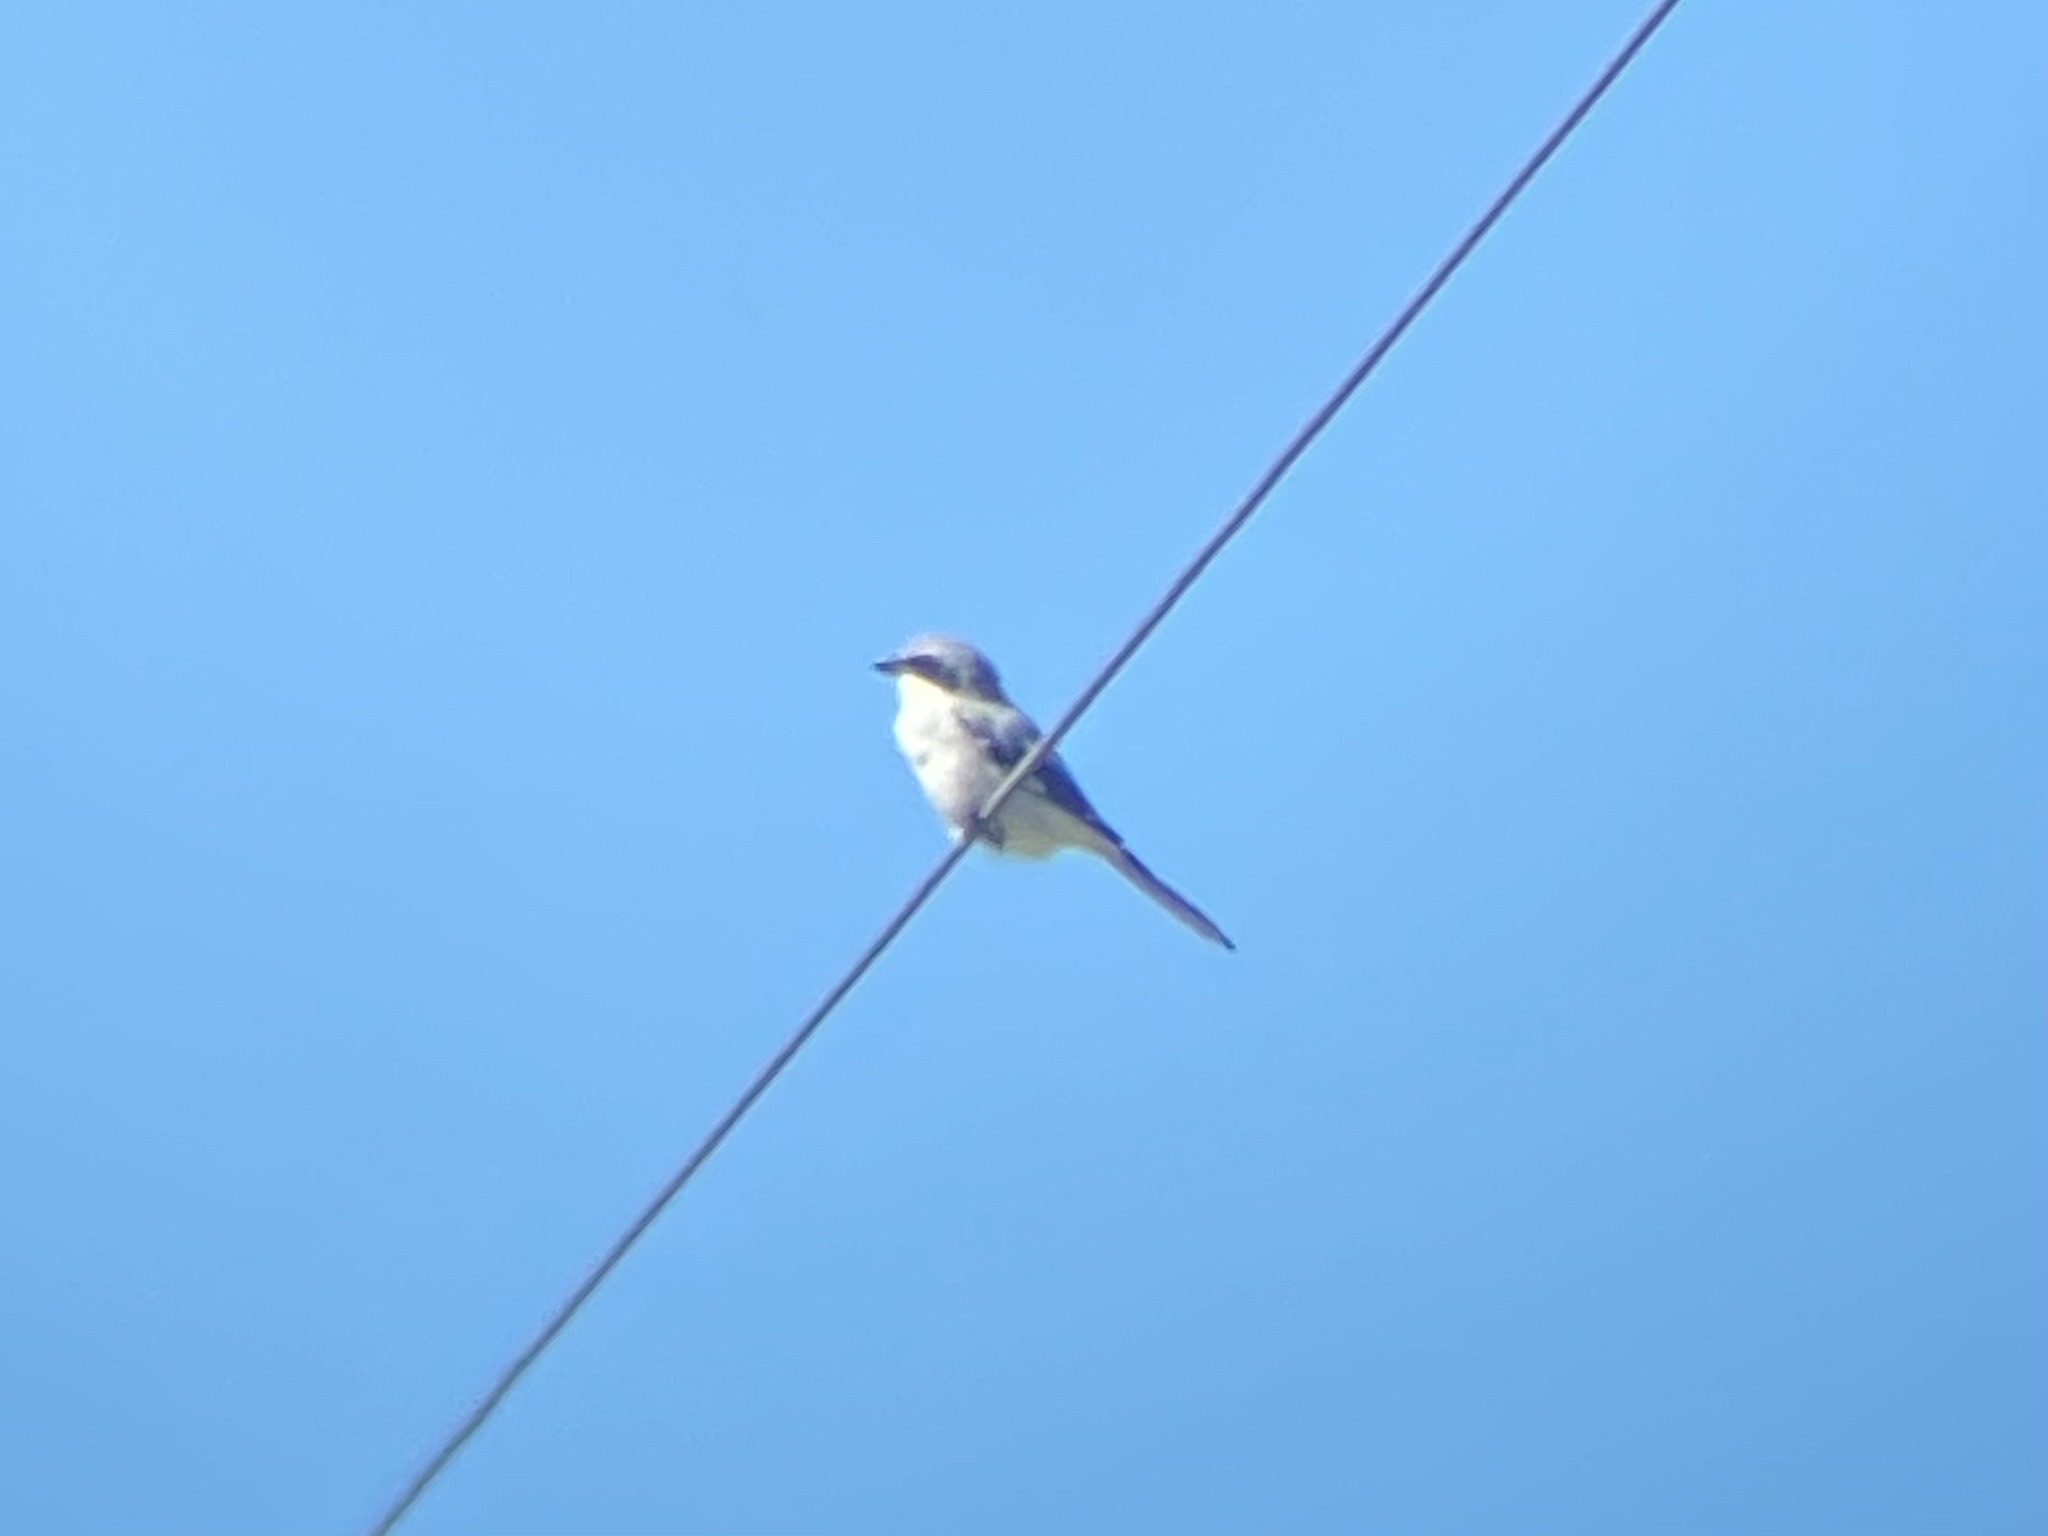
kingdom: Animalia
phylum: Chordata
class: Aves
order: Passeriformes
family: Laniidae
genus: Lanius
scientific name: Lanius ludovicianus
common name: Loggerhead shrike
